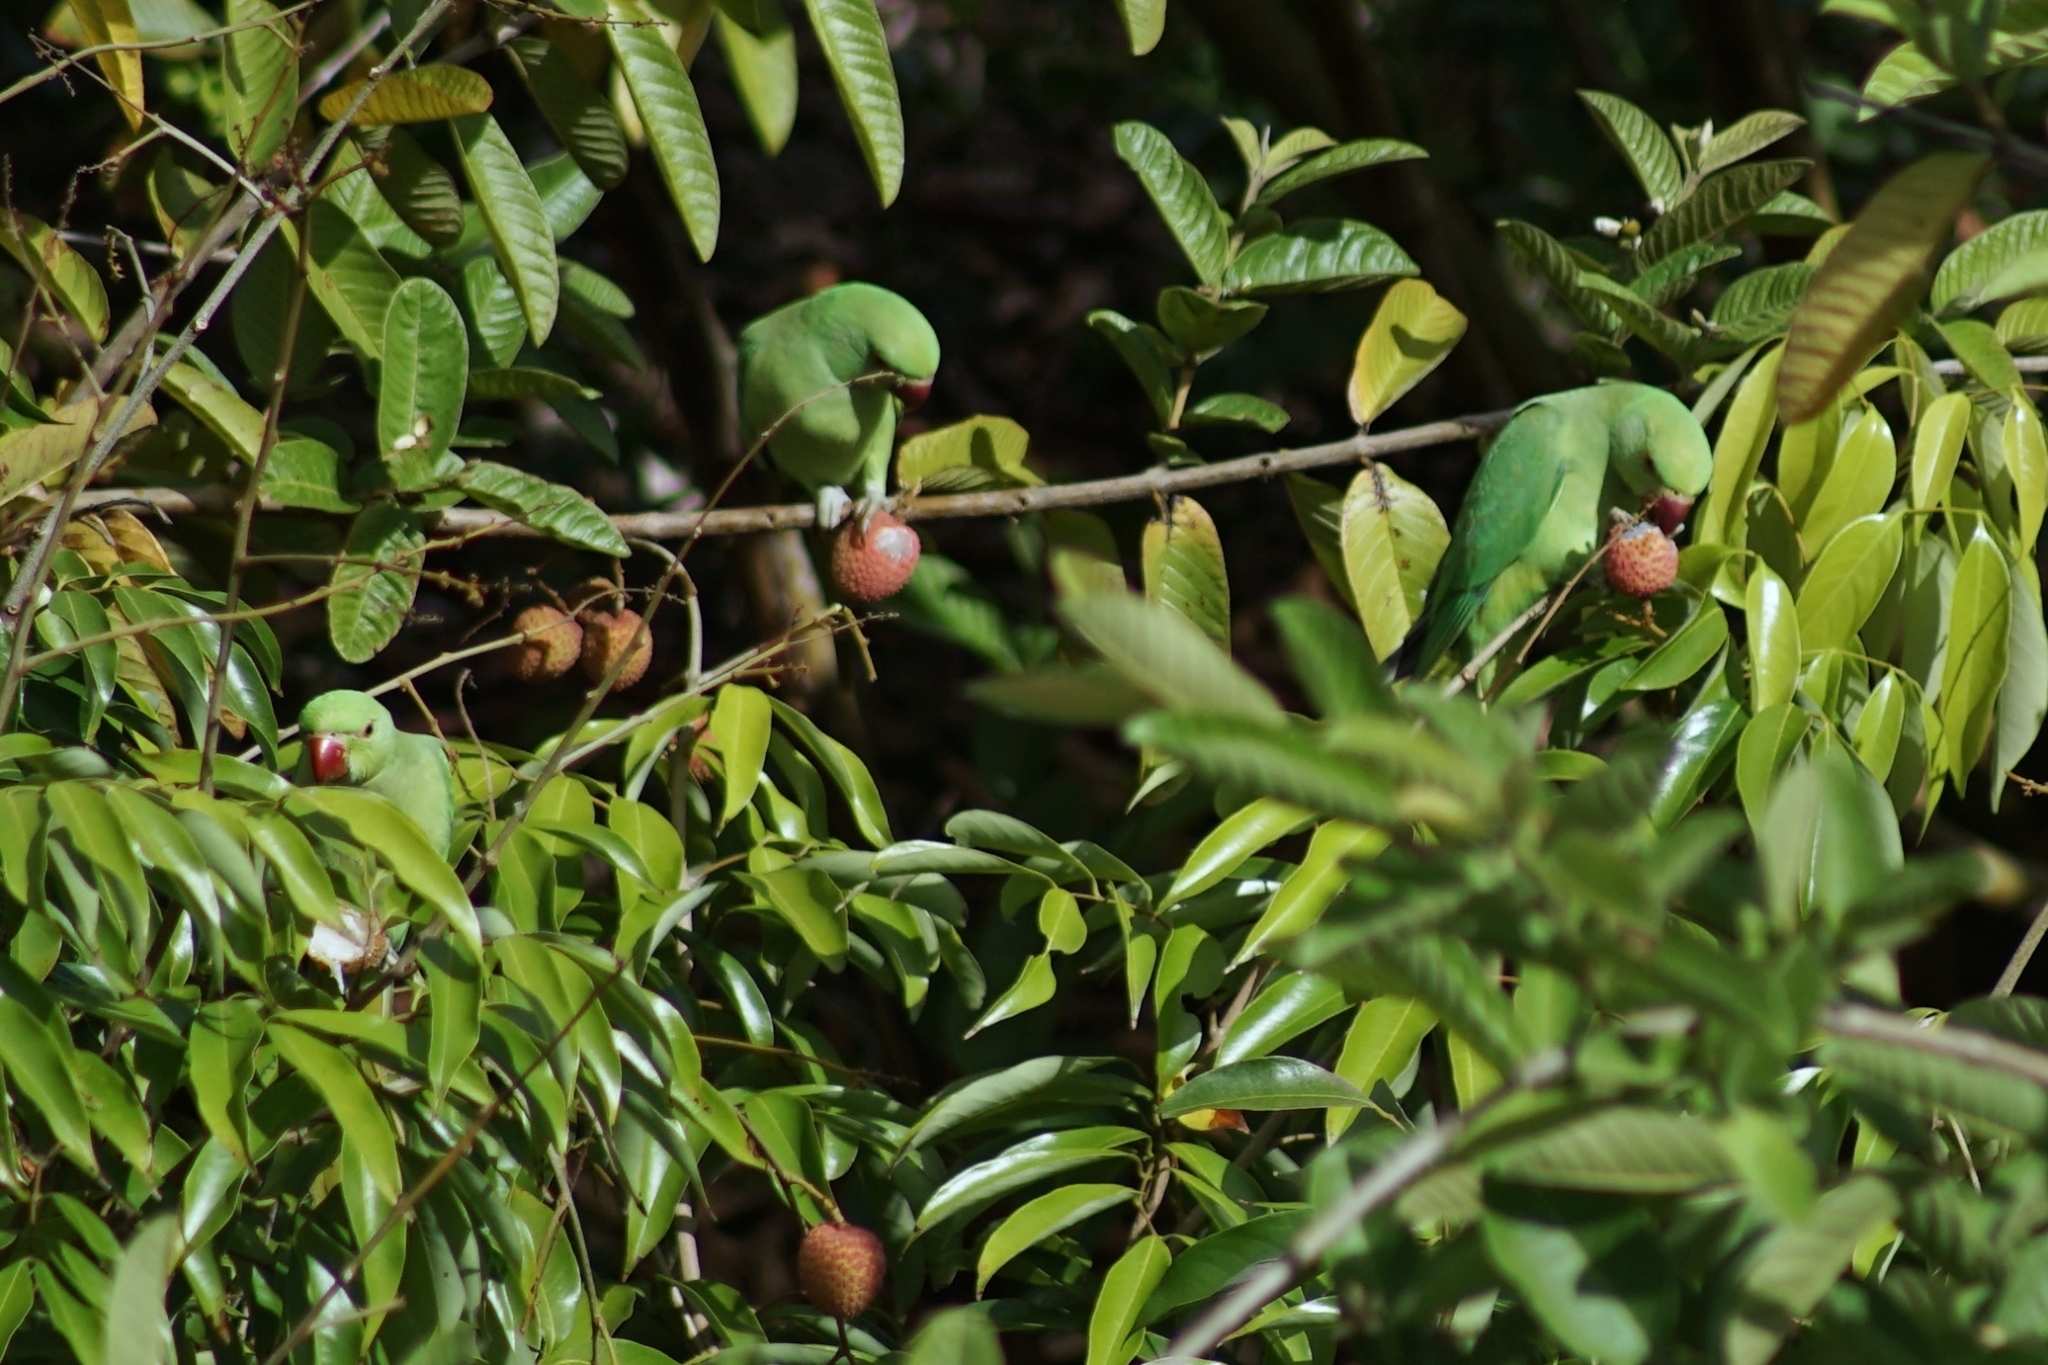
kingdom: Animalia
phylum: Chordata
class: Aves
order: Psittaciformes
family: Psittacidae
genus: Psittacula
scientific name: Psittacula krameri
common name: Rose-ringed parakeet
